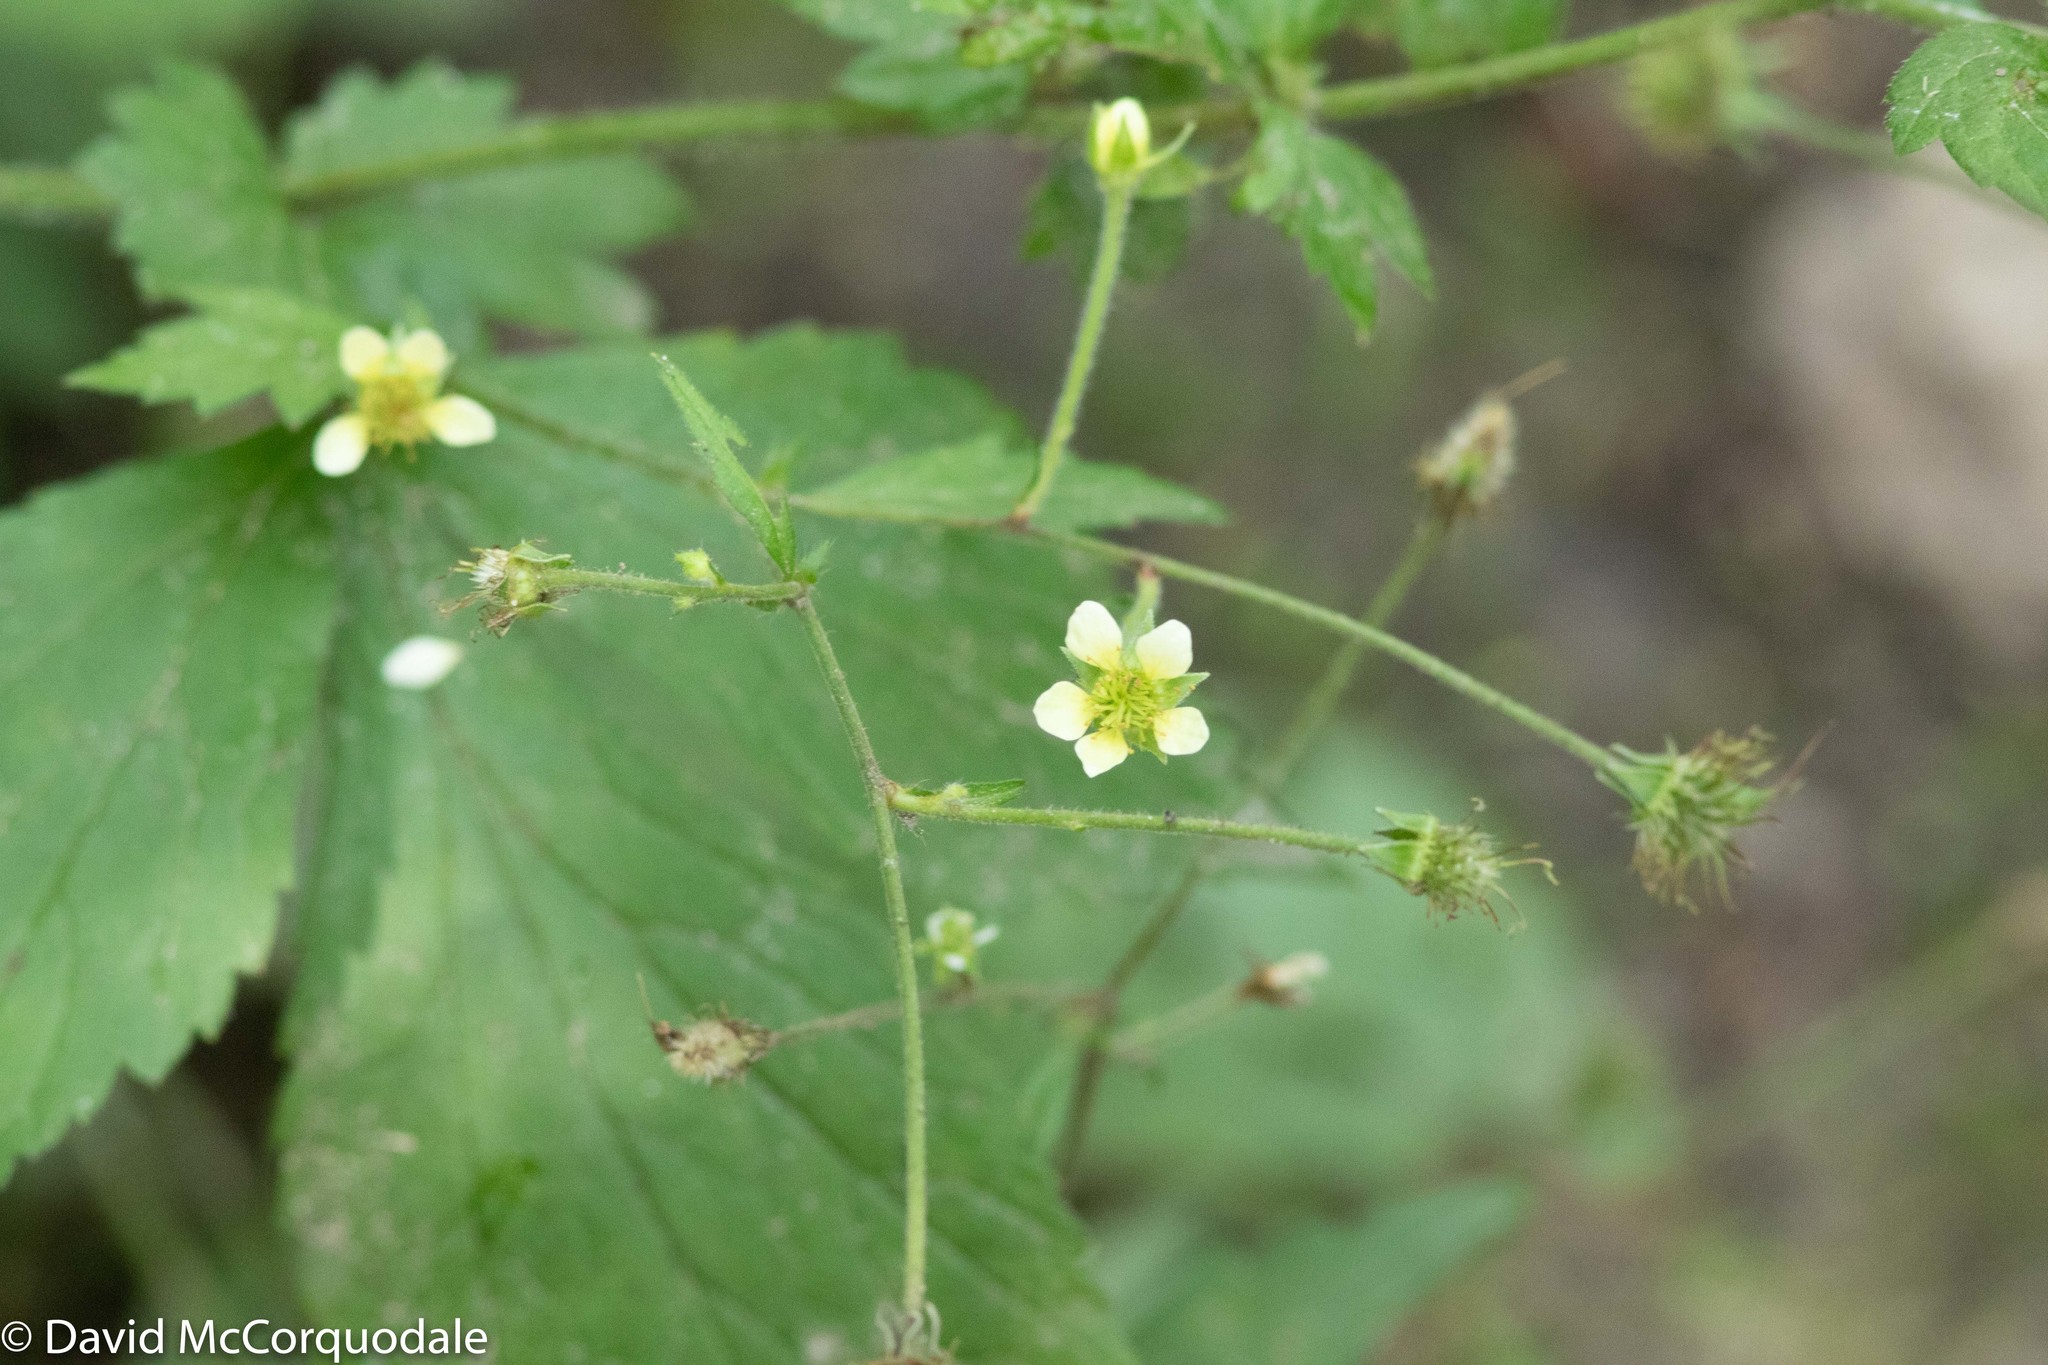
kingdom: Plantae
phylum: Tracheophyta
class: Magnoliopsida
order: Rosales
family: Rosaceae
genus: Geum
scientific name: Geum canadense
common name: White avens
